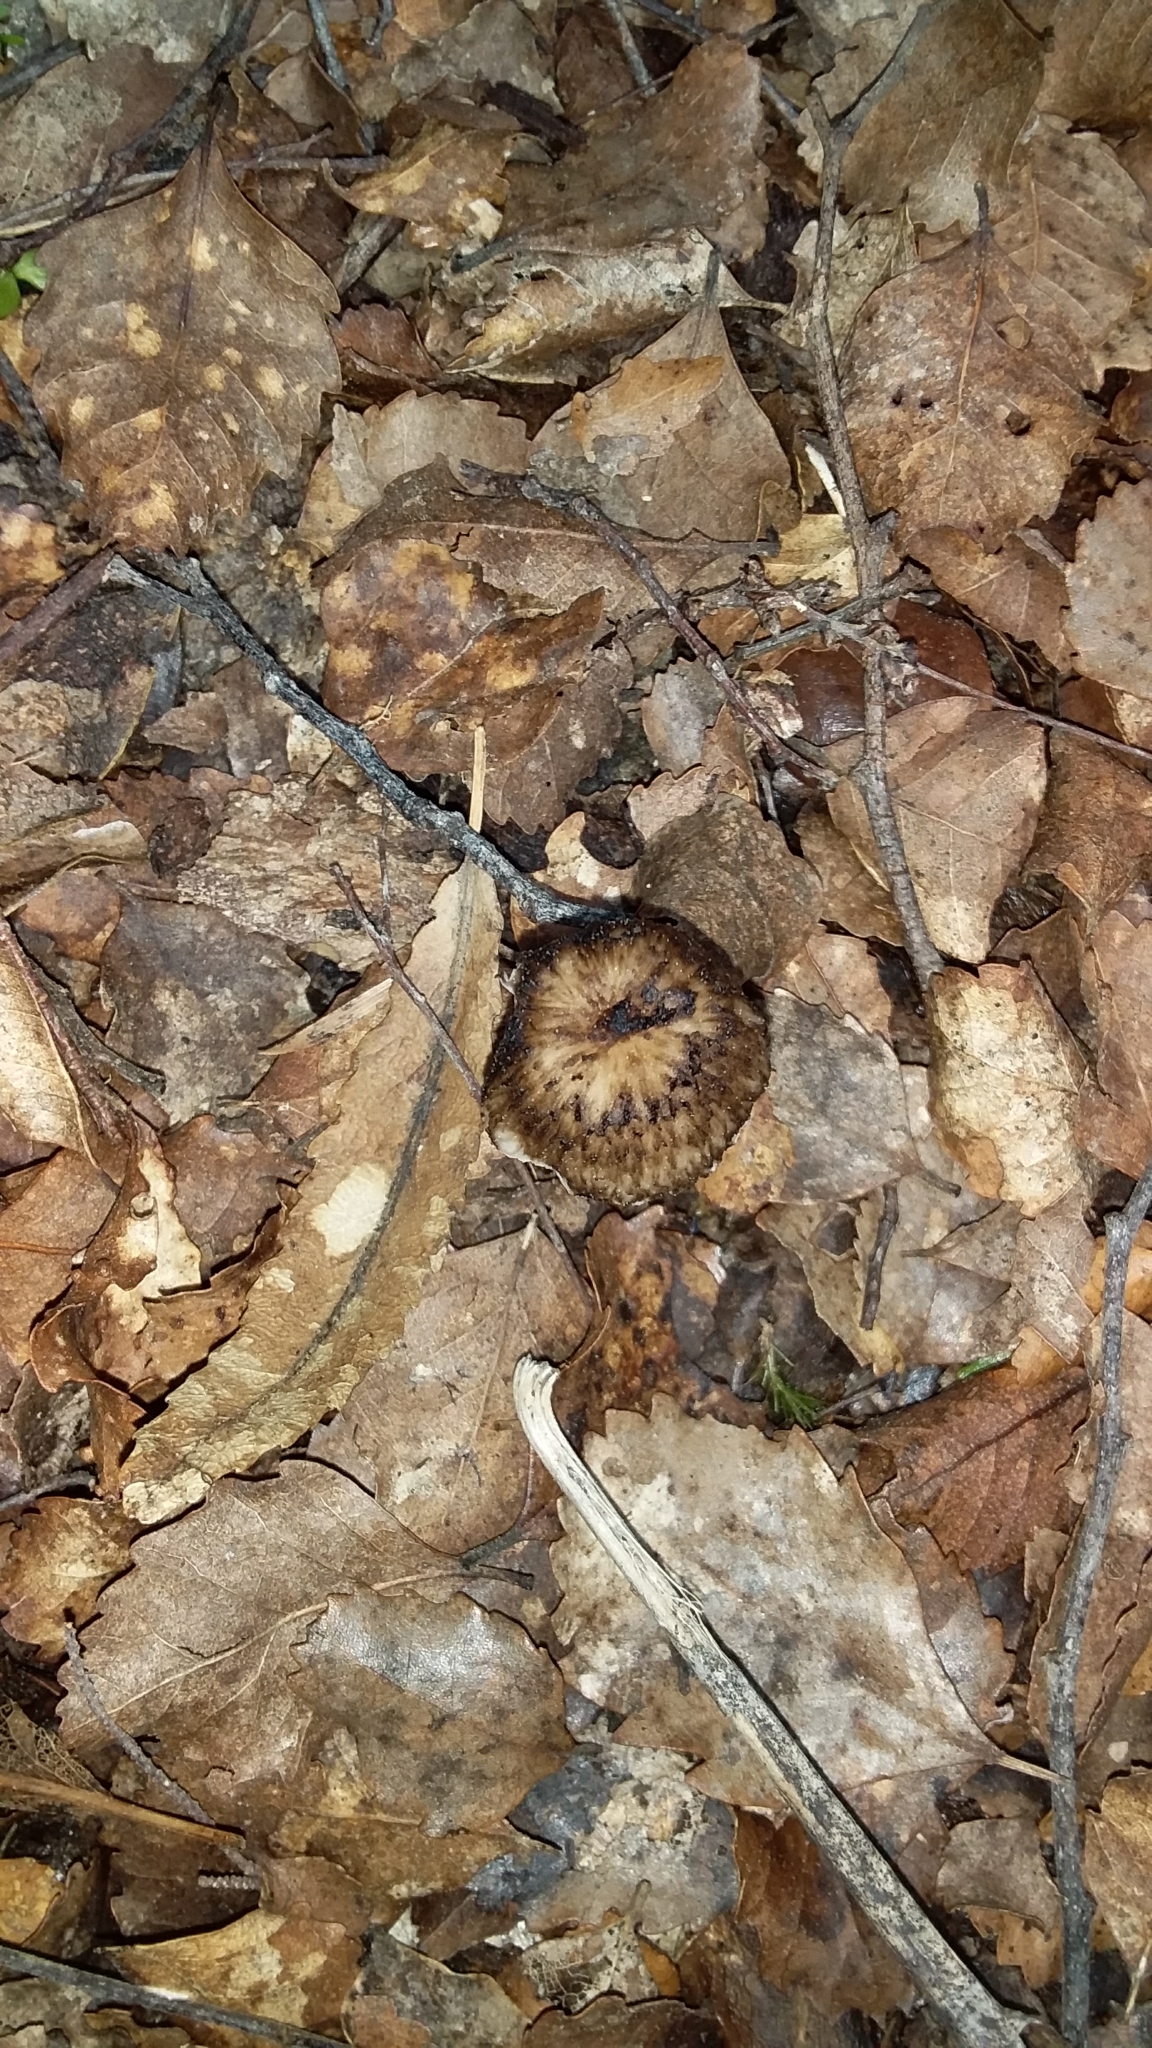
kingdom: Fungi
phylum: Basidiomycota
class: Agaricomycetes
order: Agaricales
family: Hydnangiaceae
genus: Laccaria
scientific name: Laccaria masoniae
